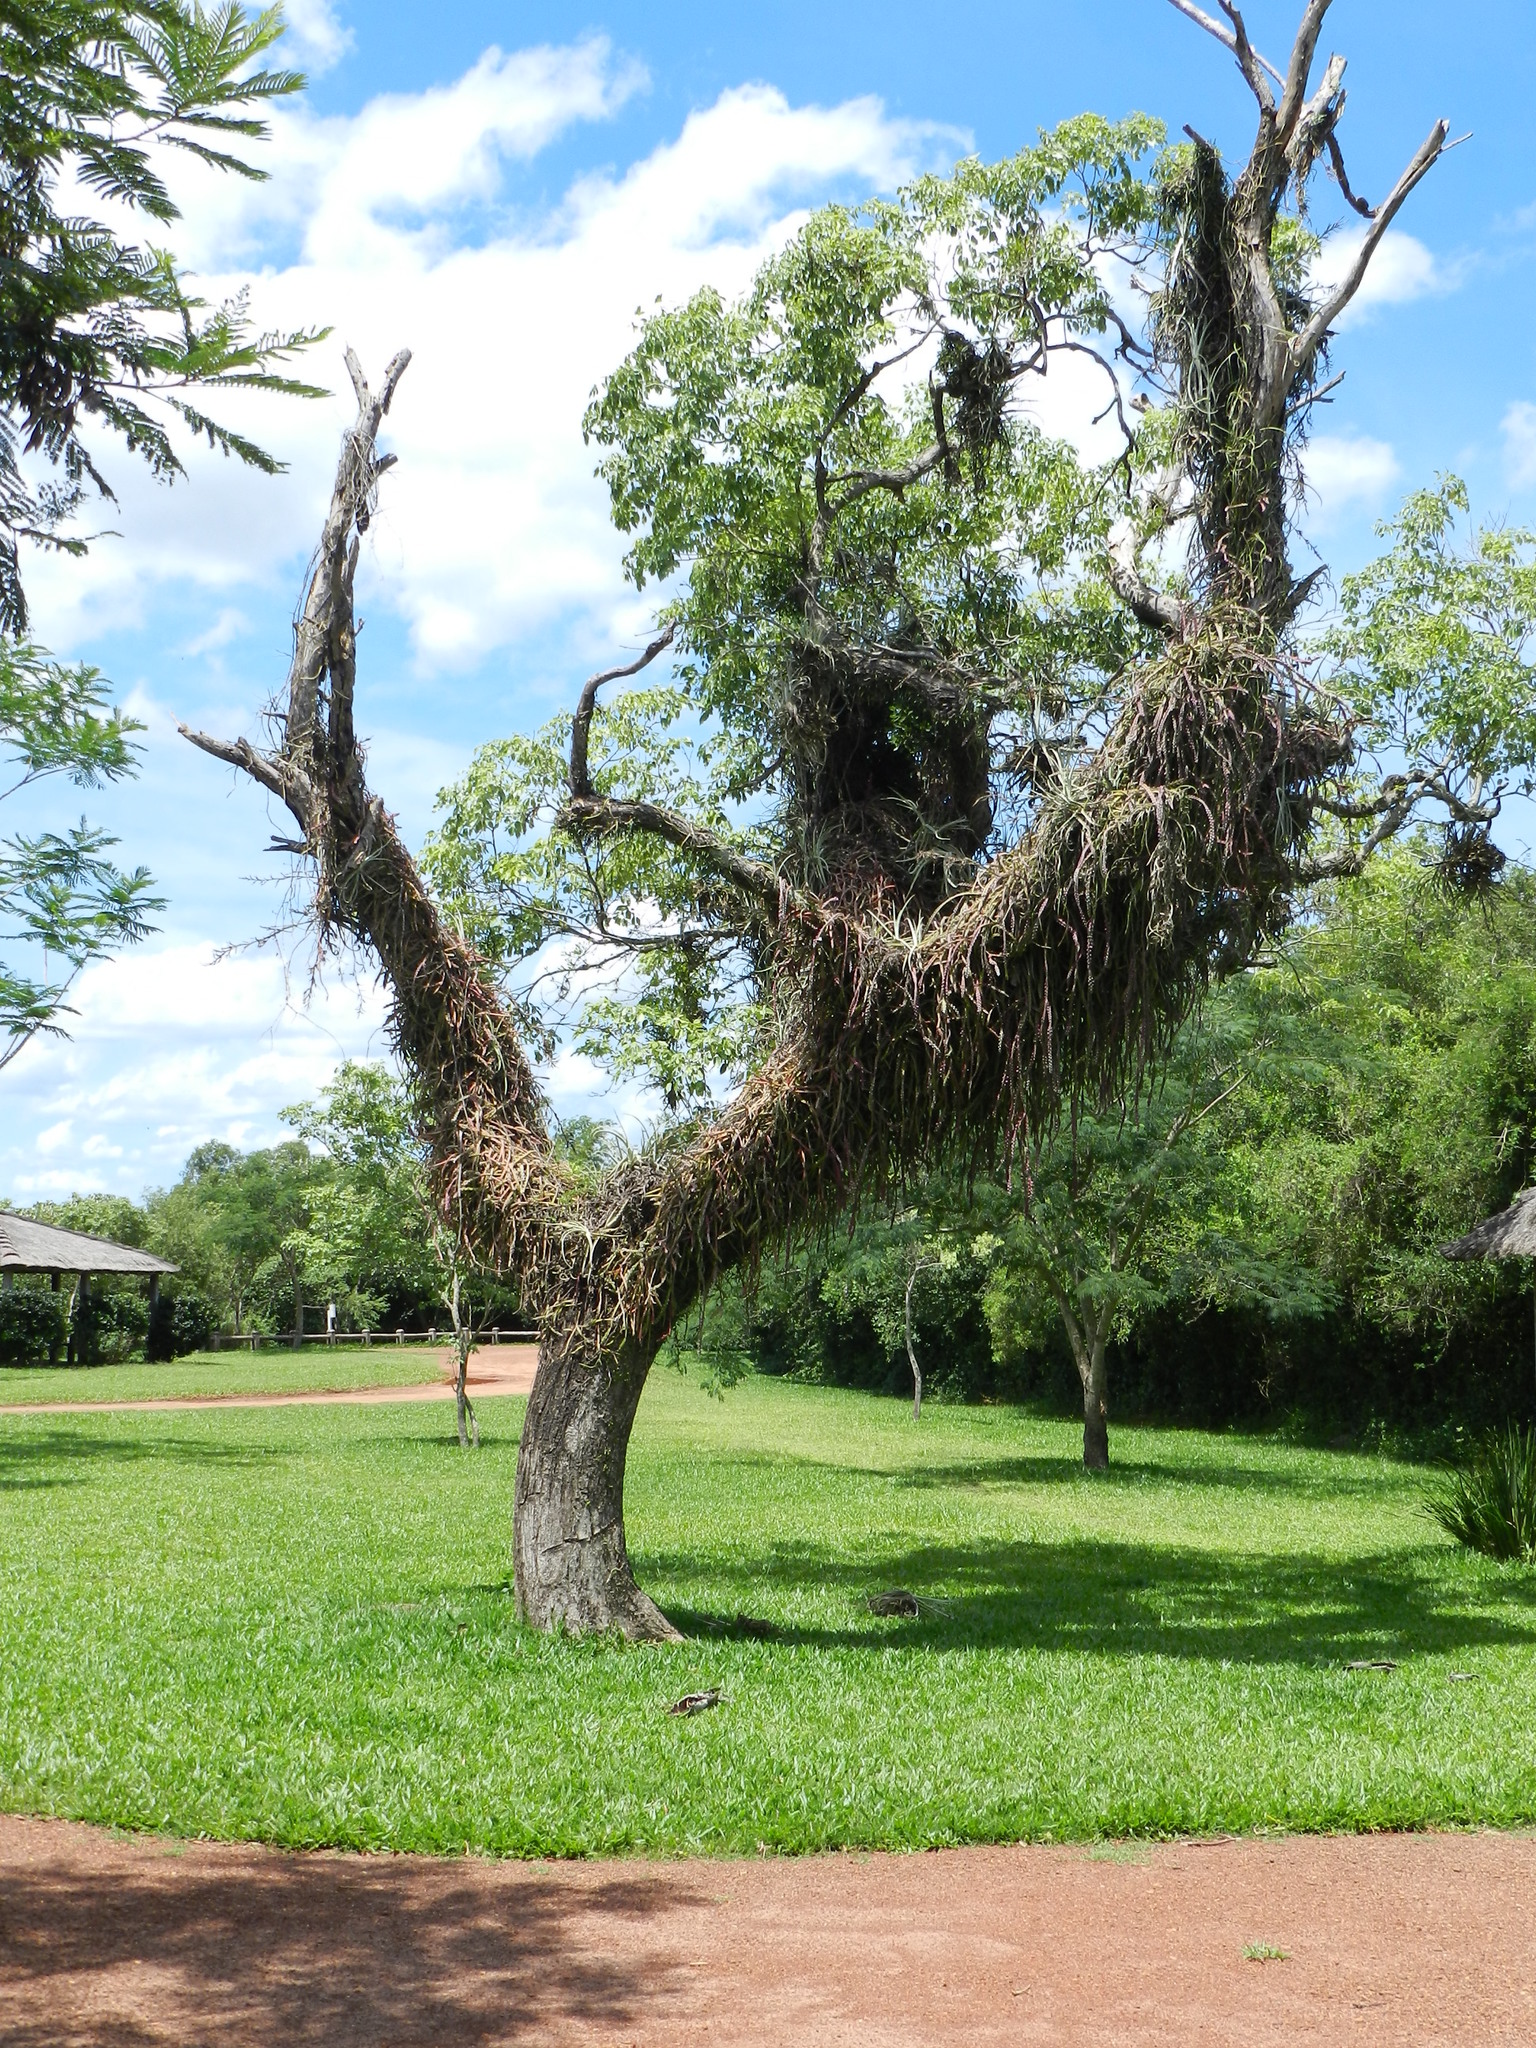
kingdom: Plantae
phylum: Tracheophyta
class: Magnoliopsida
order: Caryophyllales
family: Cactaceae
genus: Lepismium
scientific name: Lepismium cruciforme
